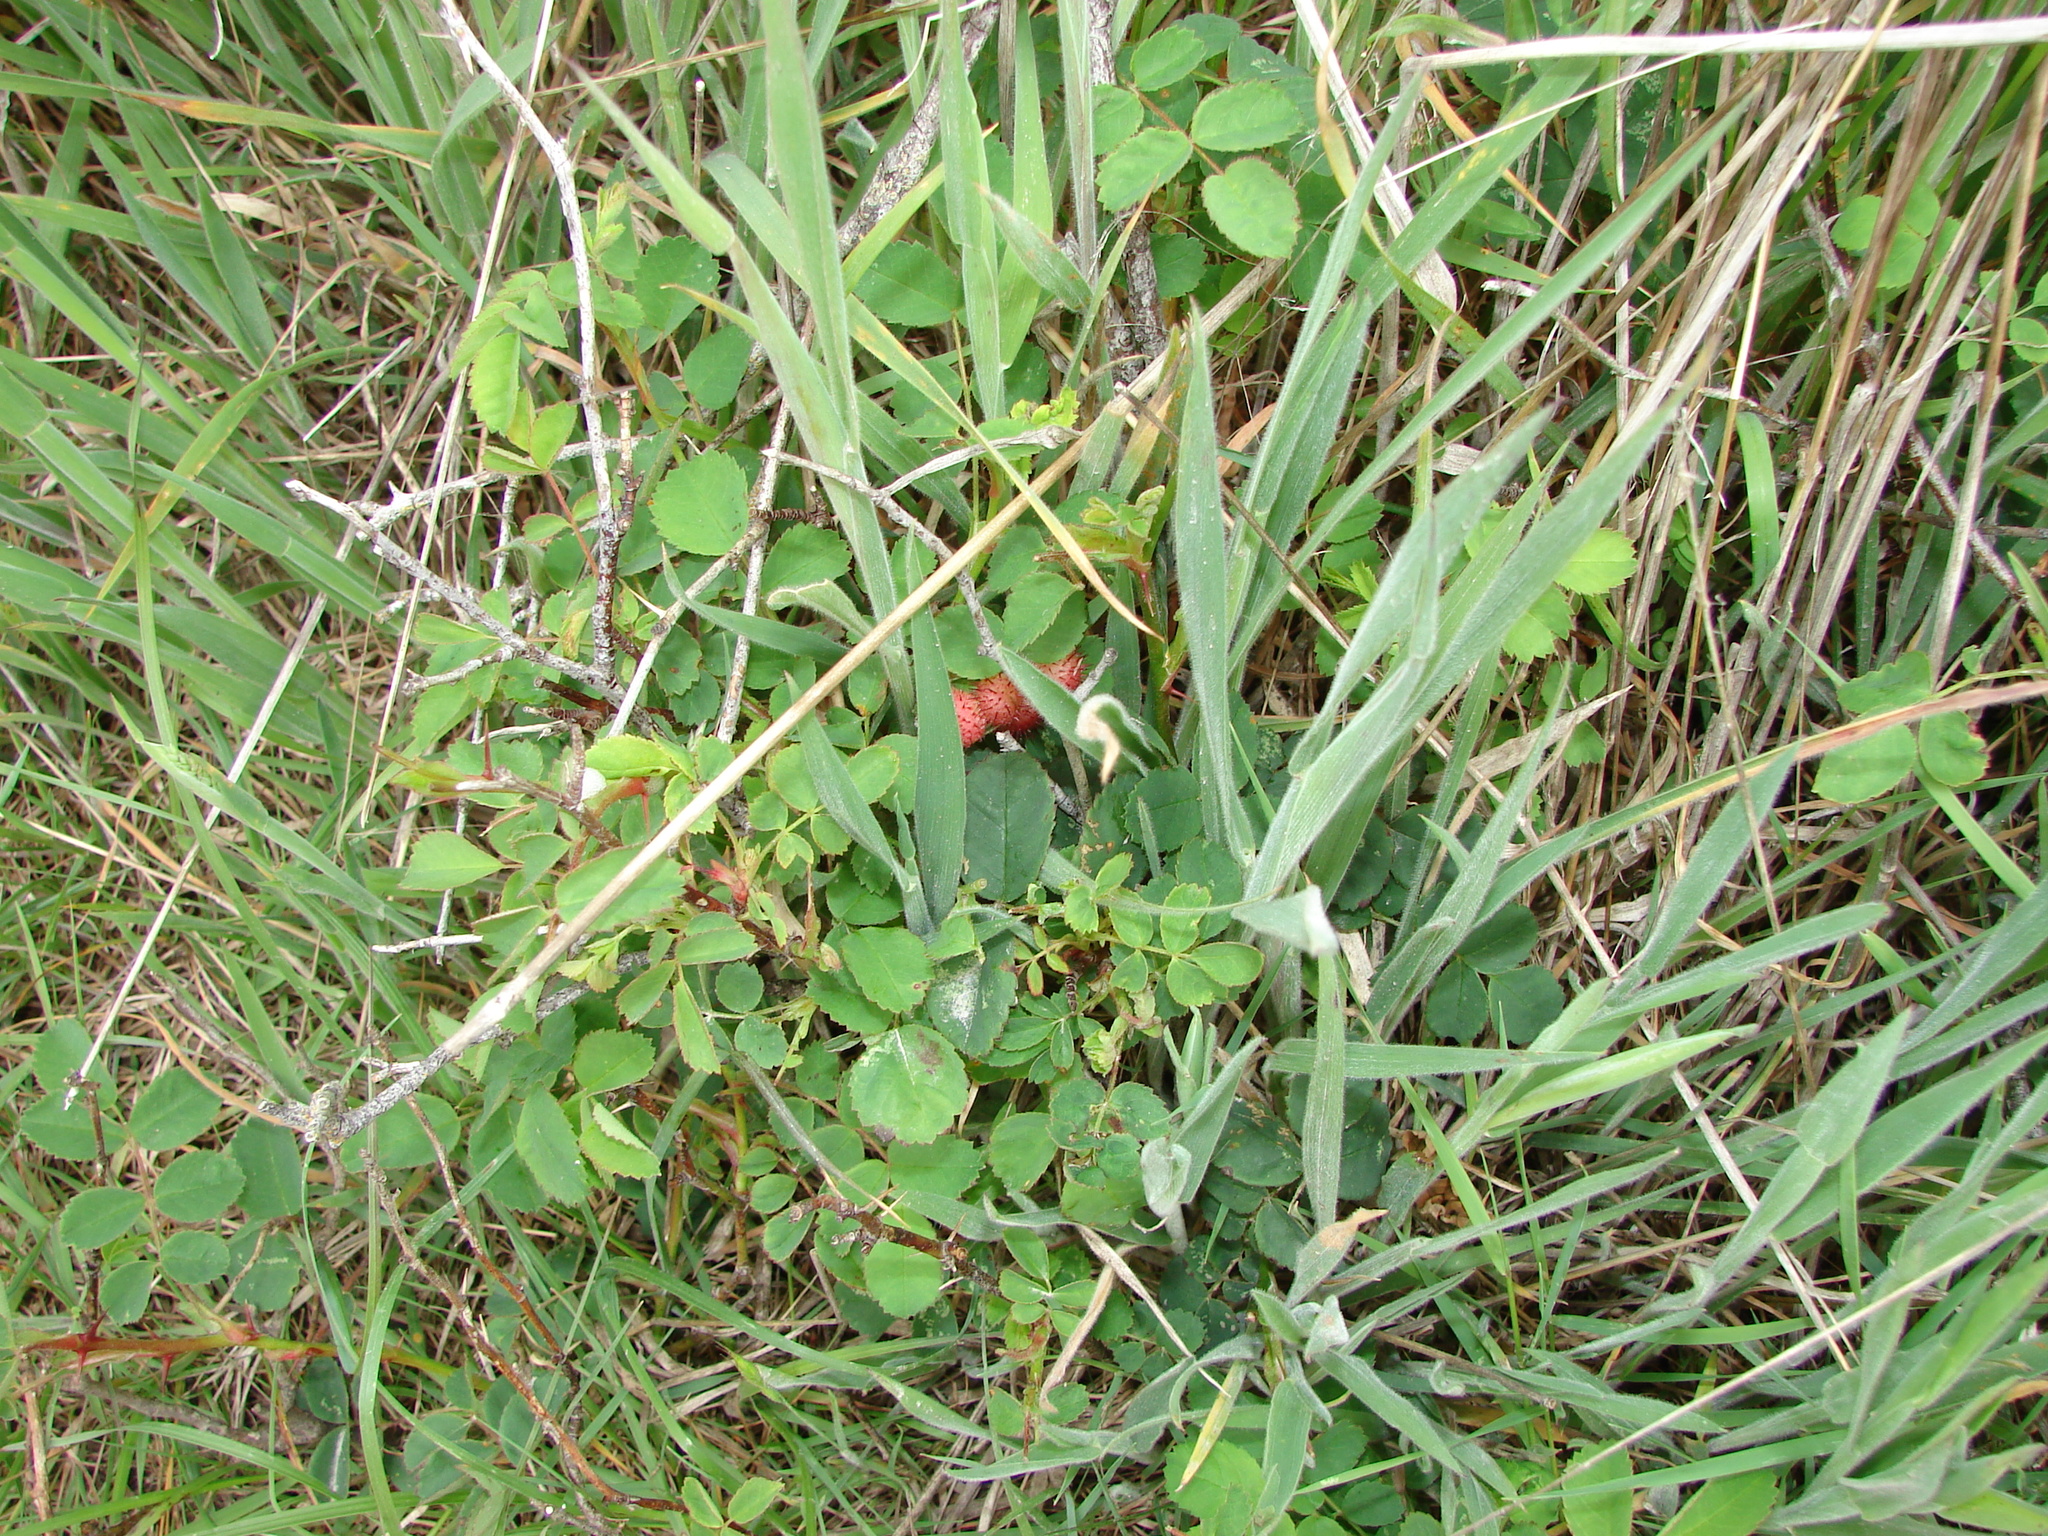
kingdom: Animalia
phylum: Arthropoda
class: Insecta
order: Hymenoptera
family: Cynipidae
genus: Diplolepis
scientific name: Diplolepis polita
